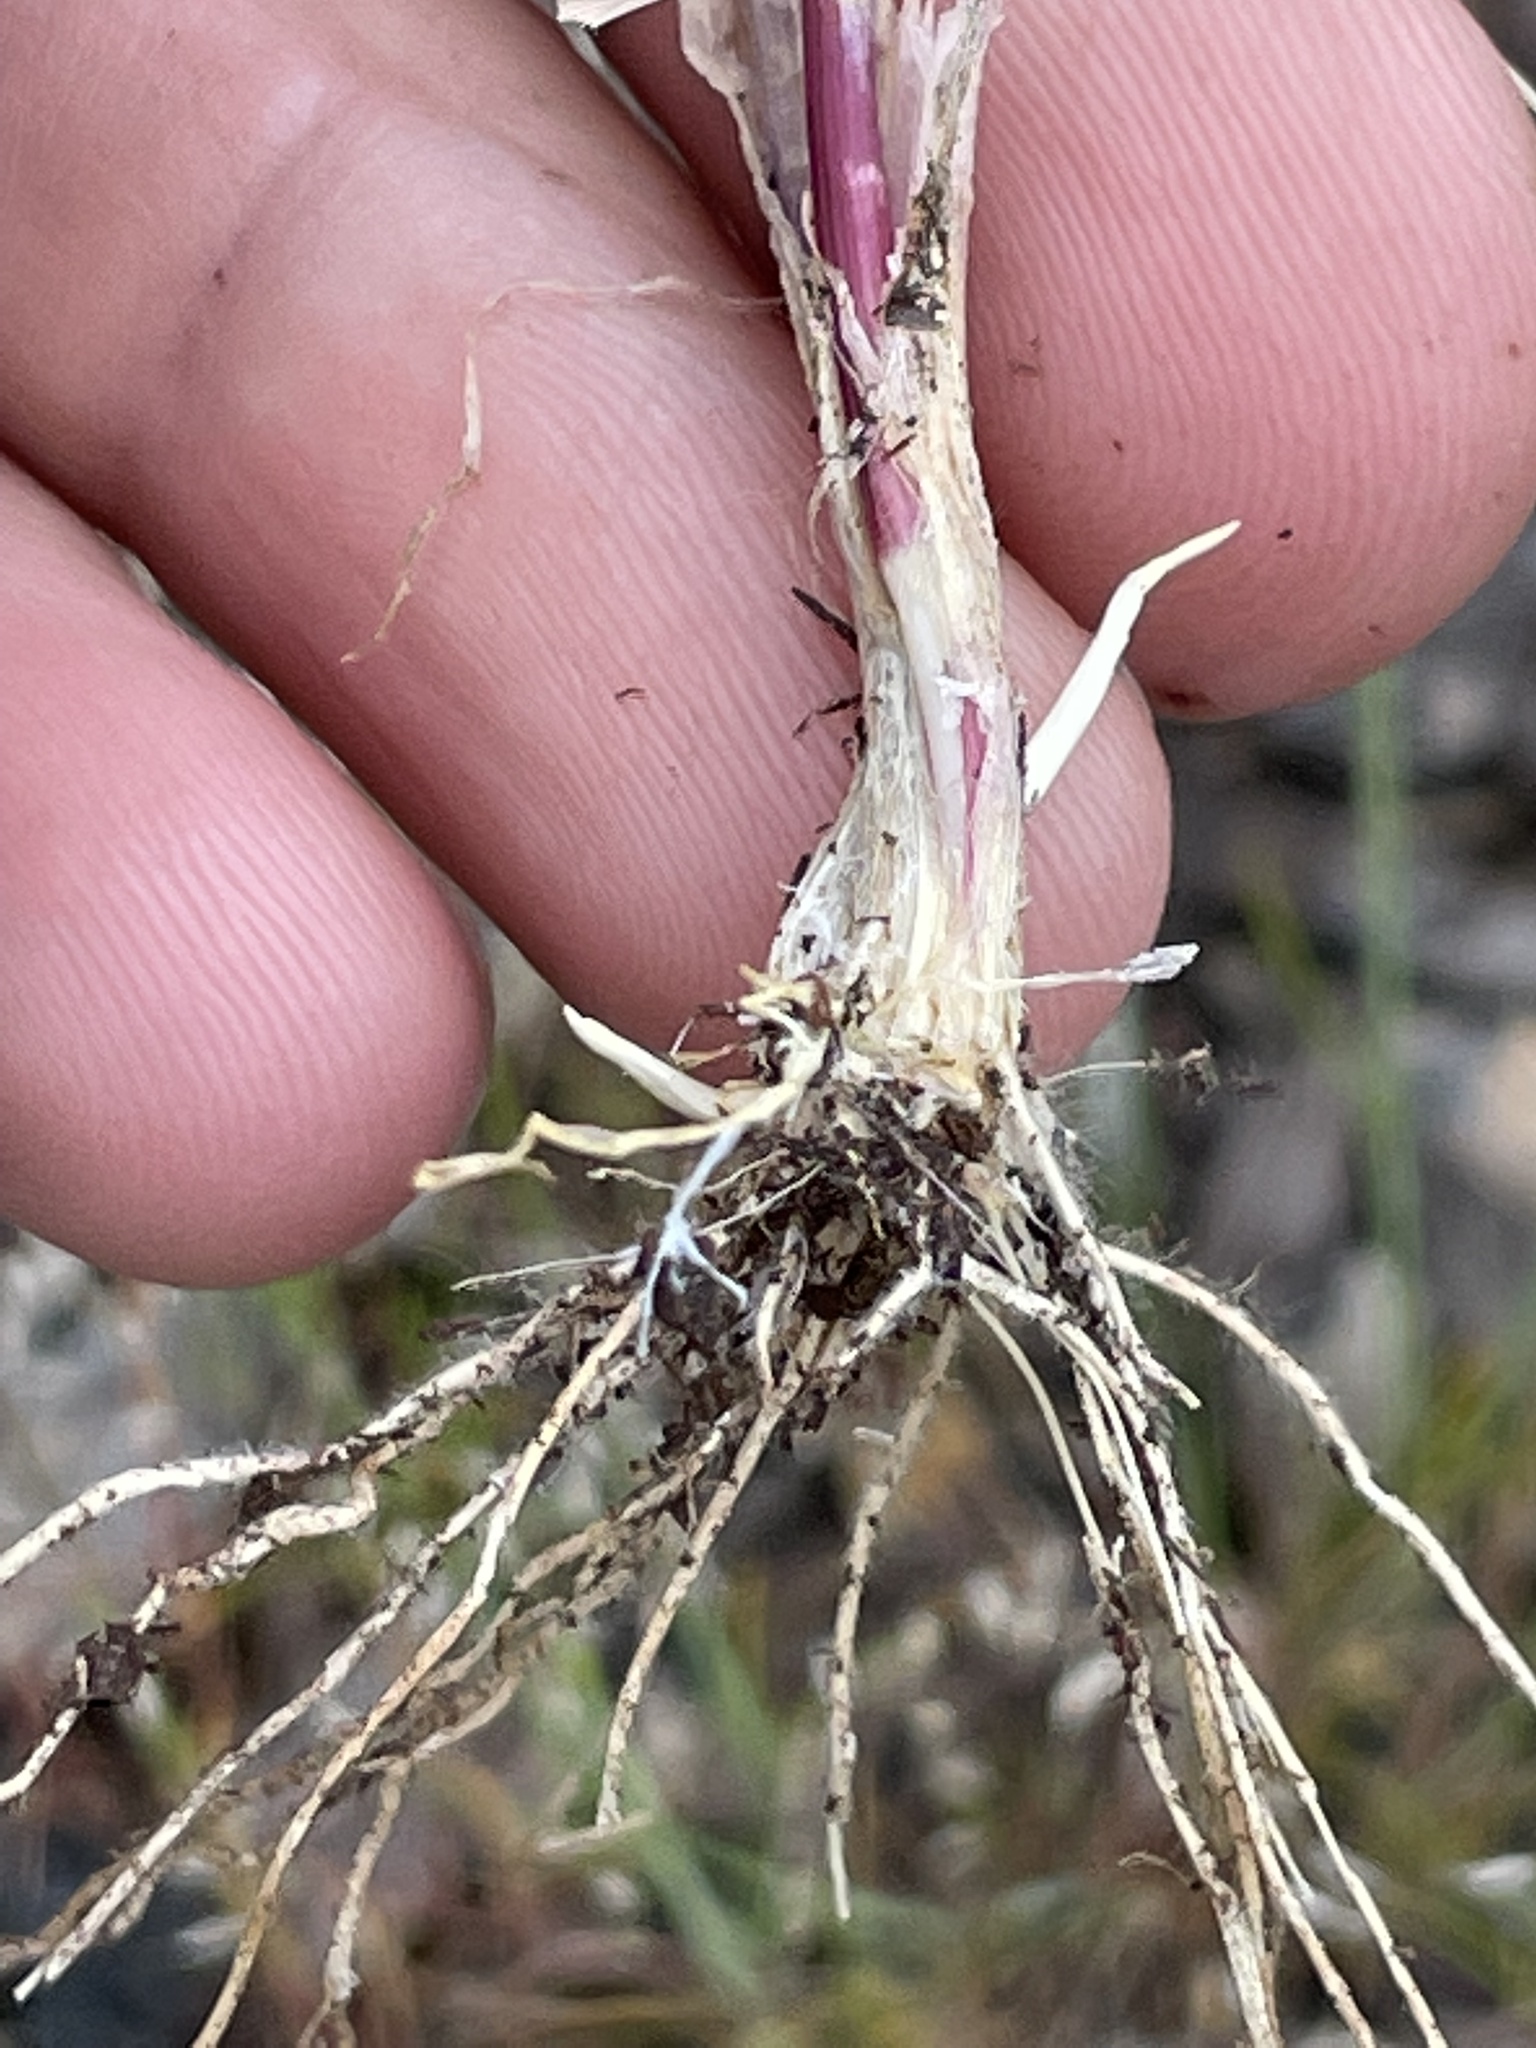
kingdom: Plantae
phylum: Tracheophyta
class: Liliopsida
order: Poales
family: Poaceae
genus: Hordeum
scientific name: Hordeum brachyantherum
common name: Meadow barley
